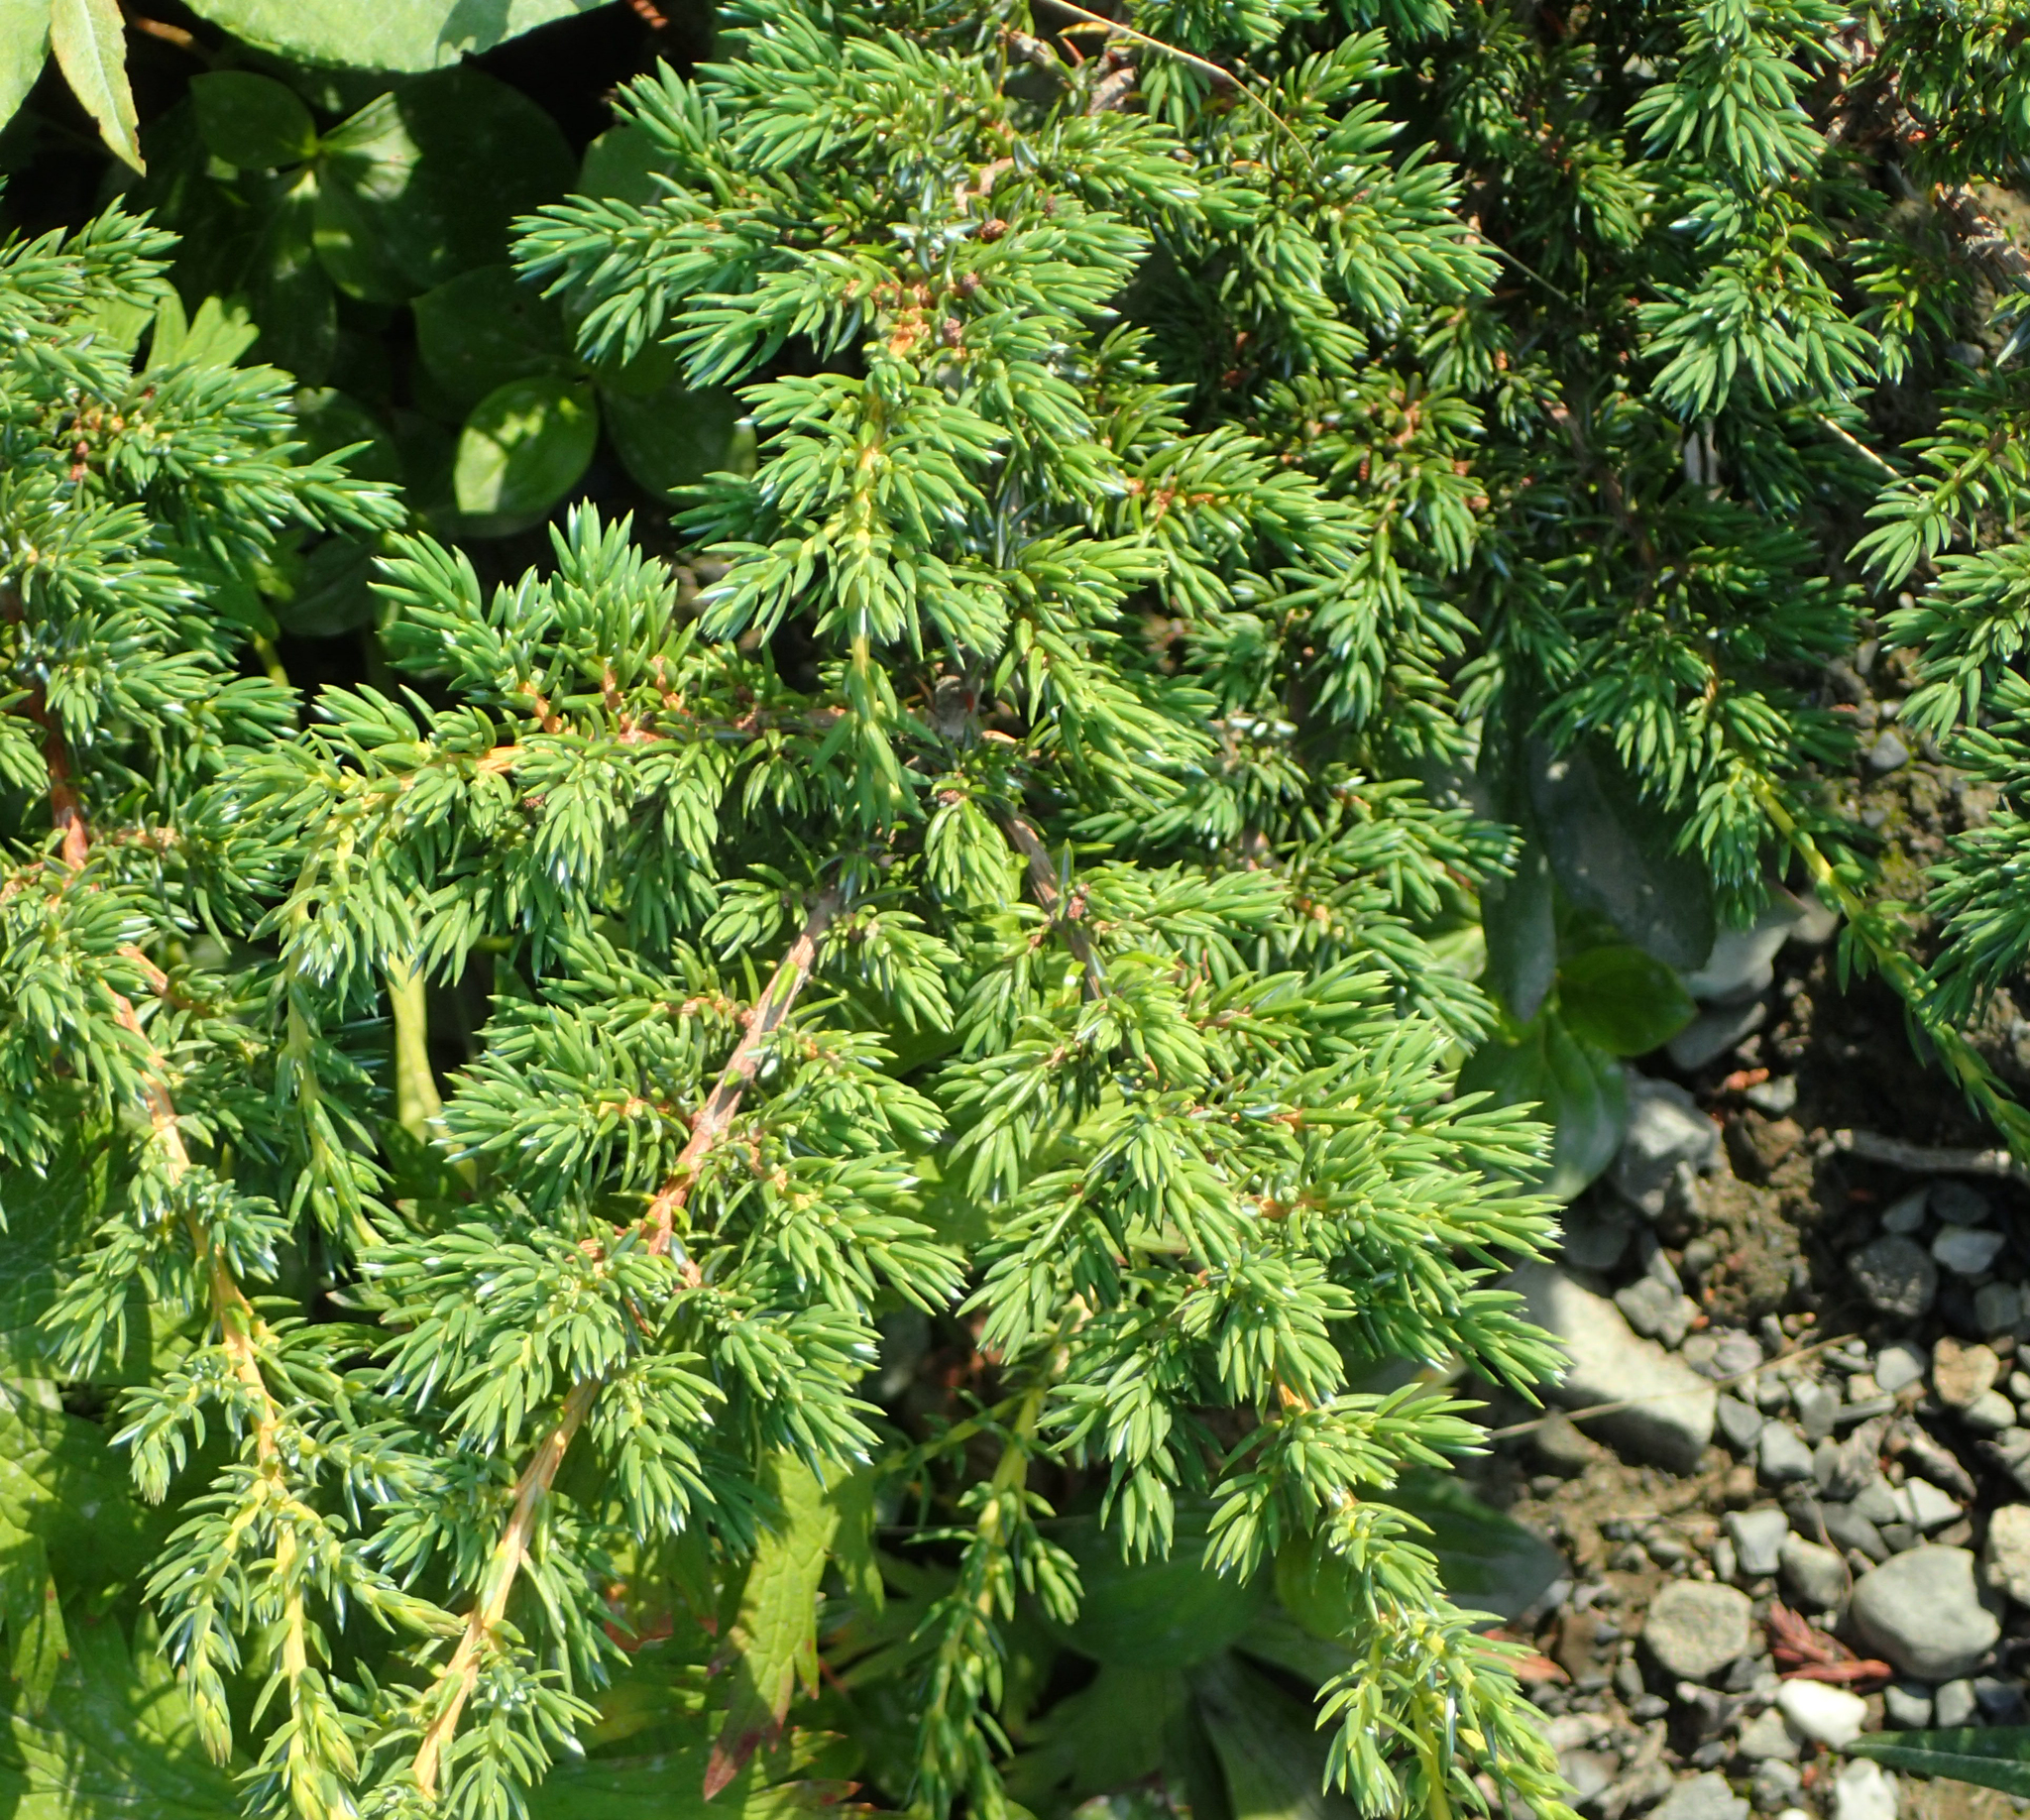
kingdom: Plantae
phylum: Tracheophyta
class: Pinopsida
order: Pinales
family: Cupressaceae
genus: Juniperus
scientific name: Juniperus communis
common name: Common juniper
